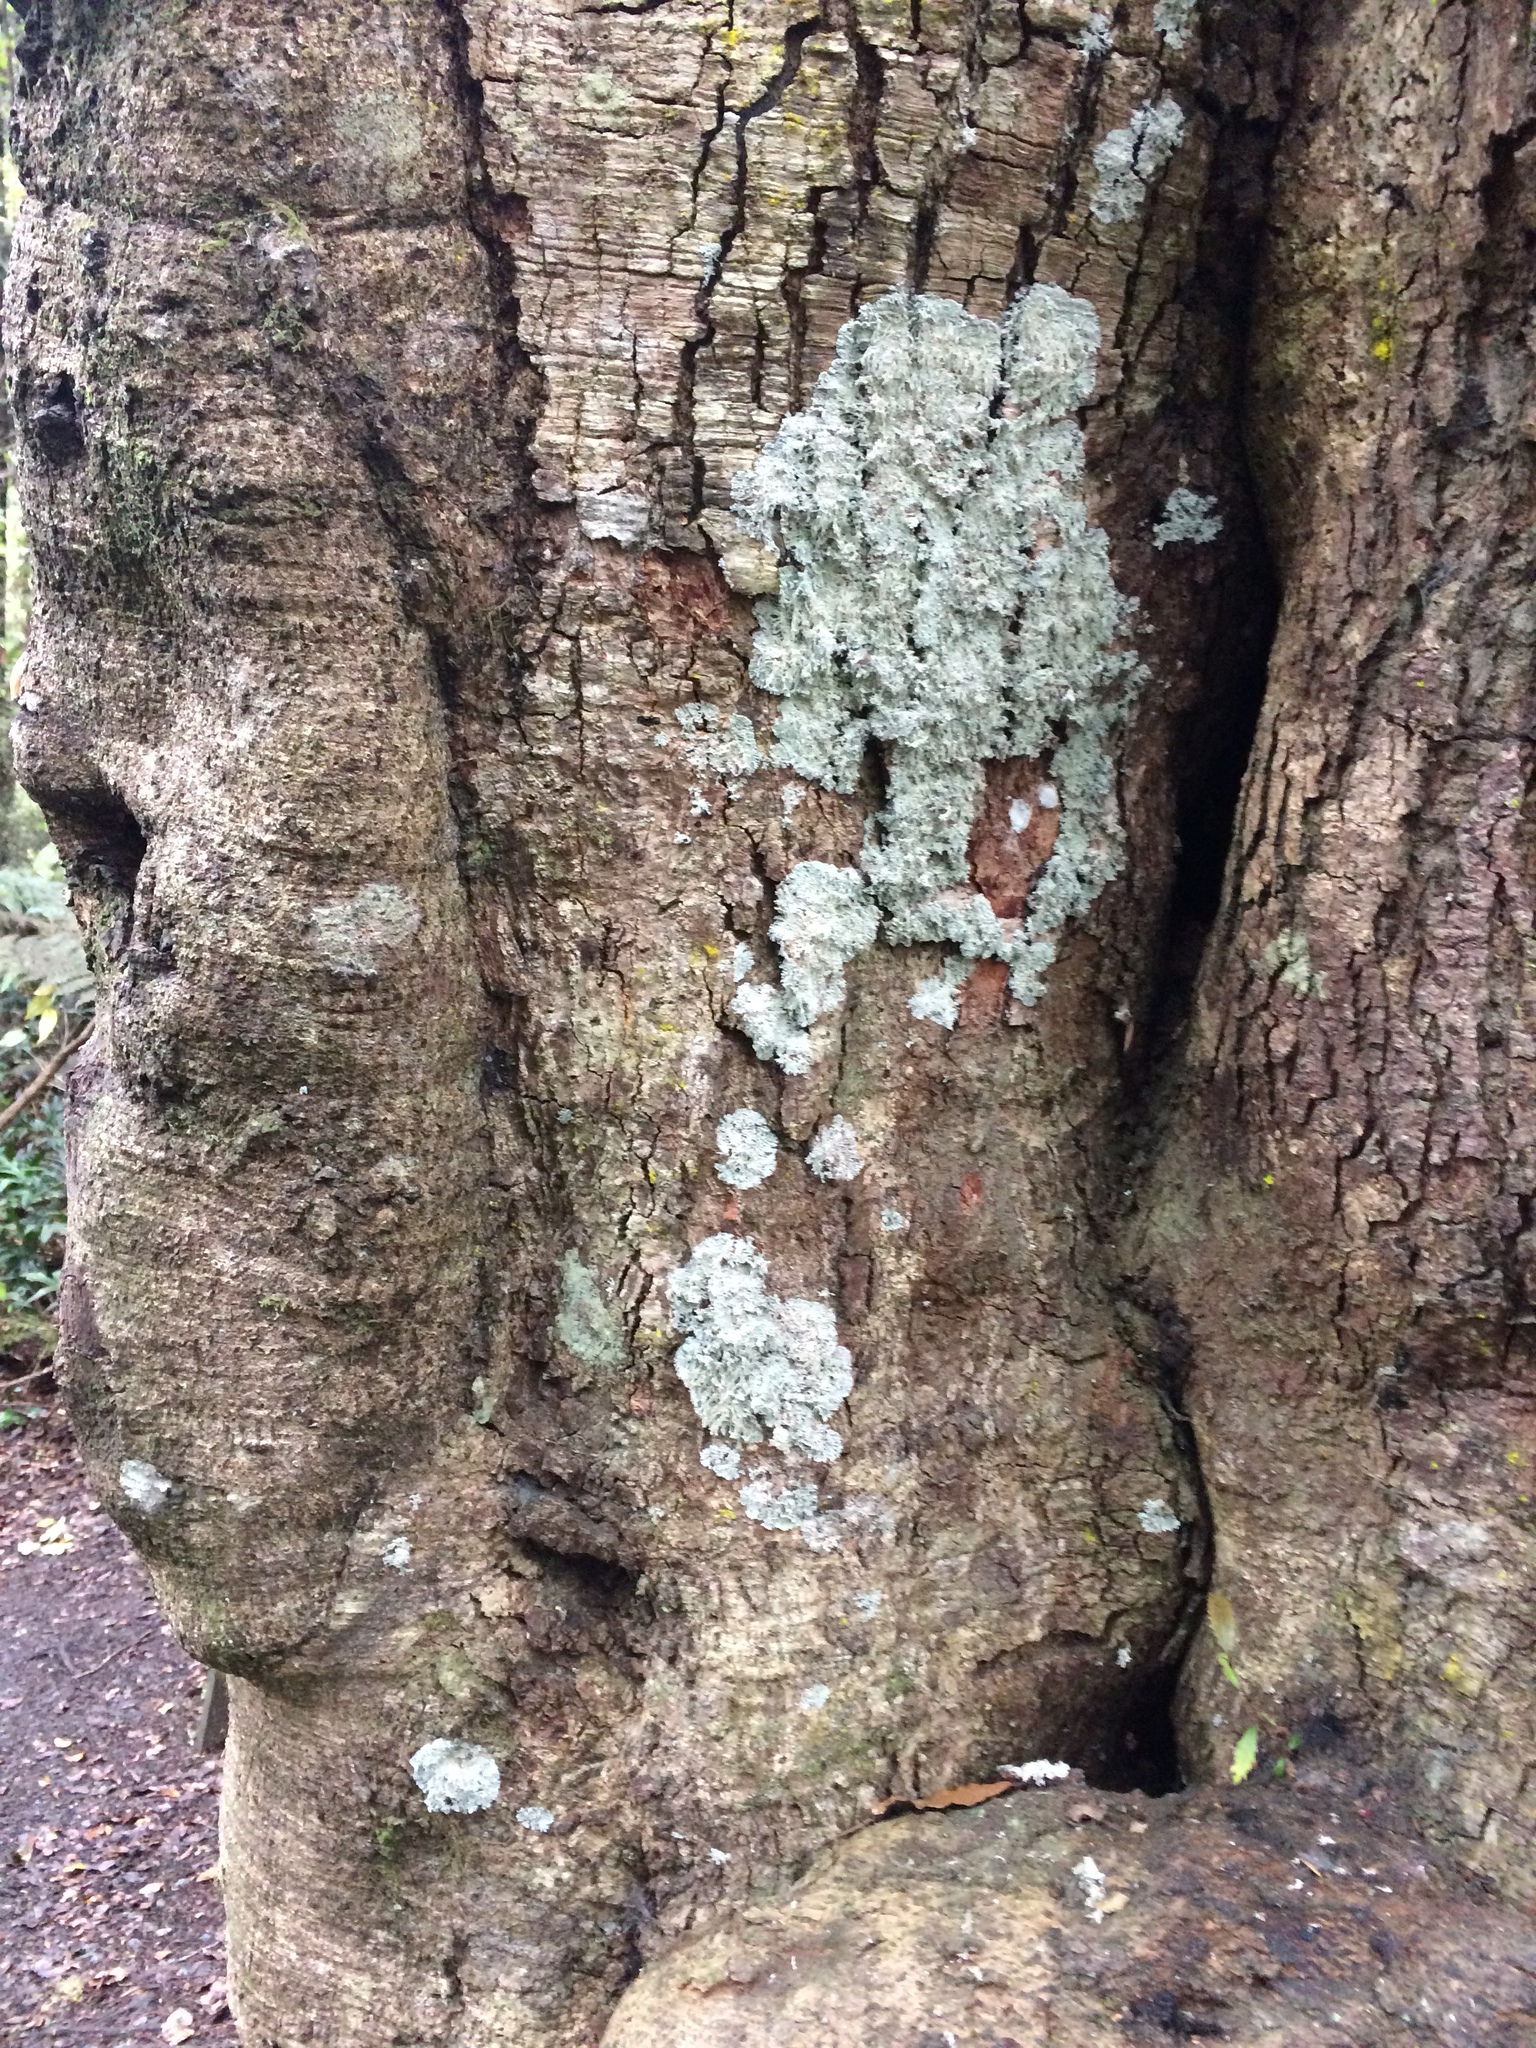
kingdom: Fungi
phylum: Ascomycota
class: Arthoniomycetes
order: Arthoniales
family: Roccellaceae
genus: Lecanactis
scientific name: Lecanactis mollis
